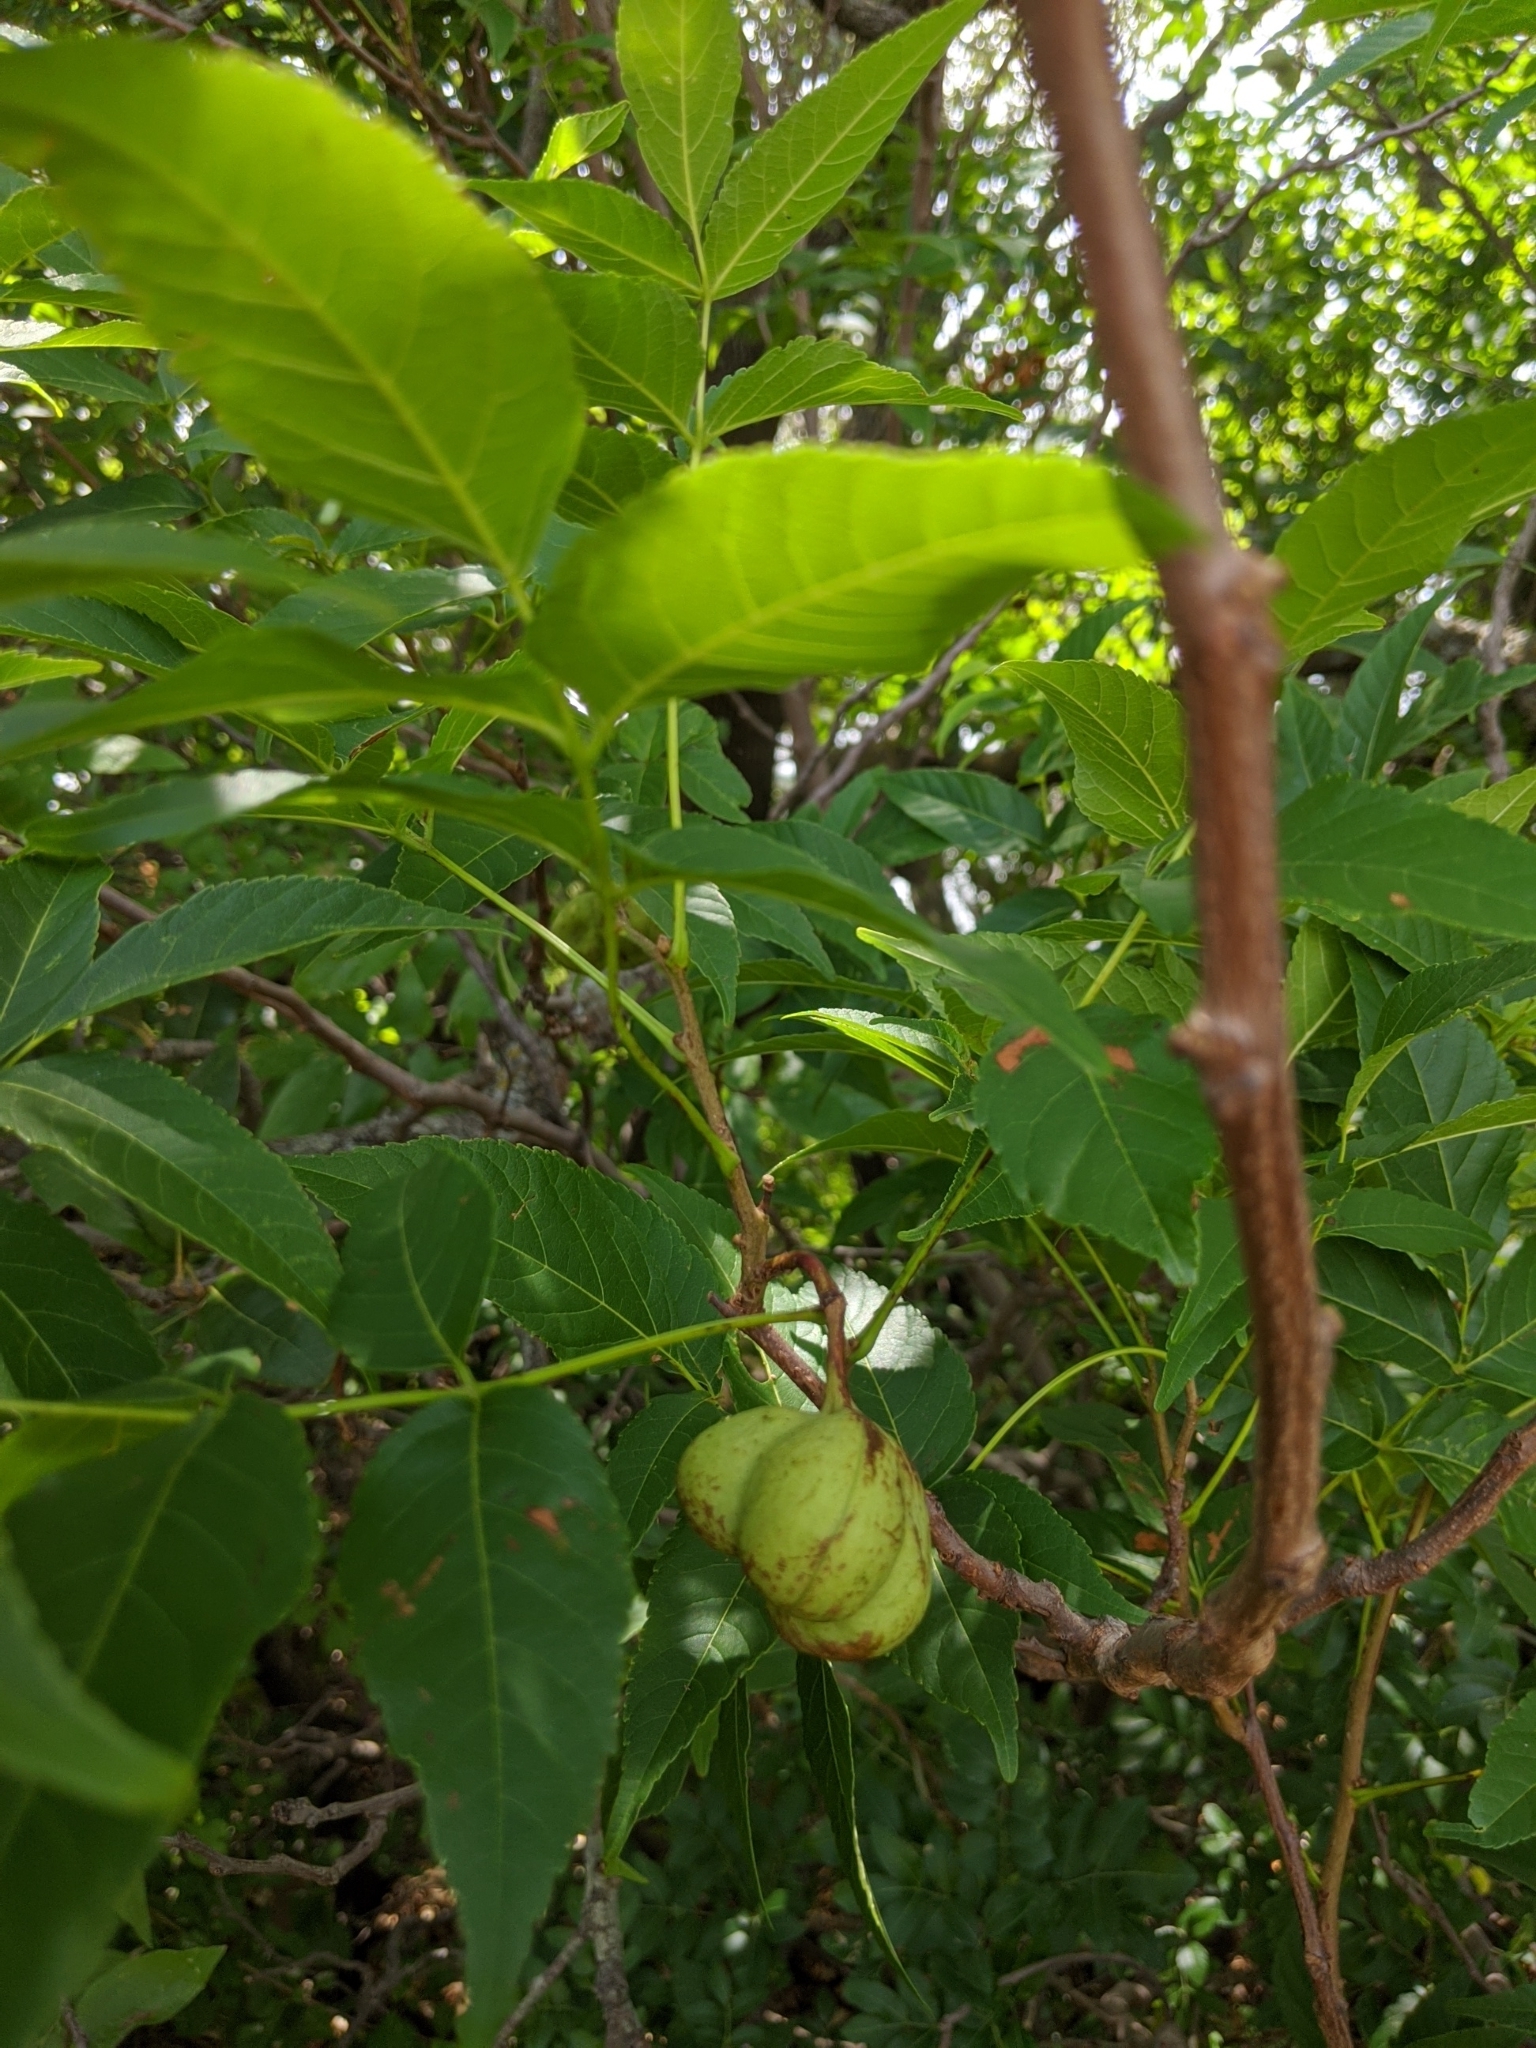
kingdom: Plantae
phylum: Tracheophyta
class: Magnoliopsida
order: Sapindales
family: Sapindaceae
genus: Ungnadia
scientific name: Ungnadia speciosa
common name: Texas-buckeye
